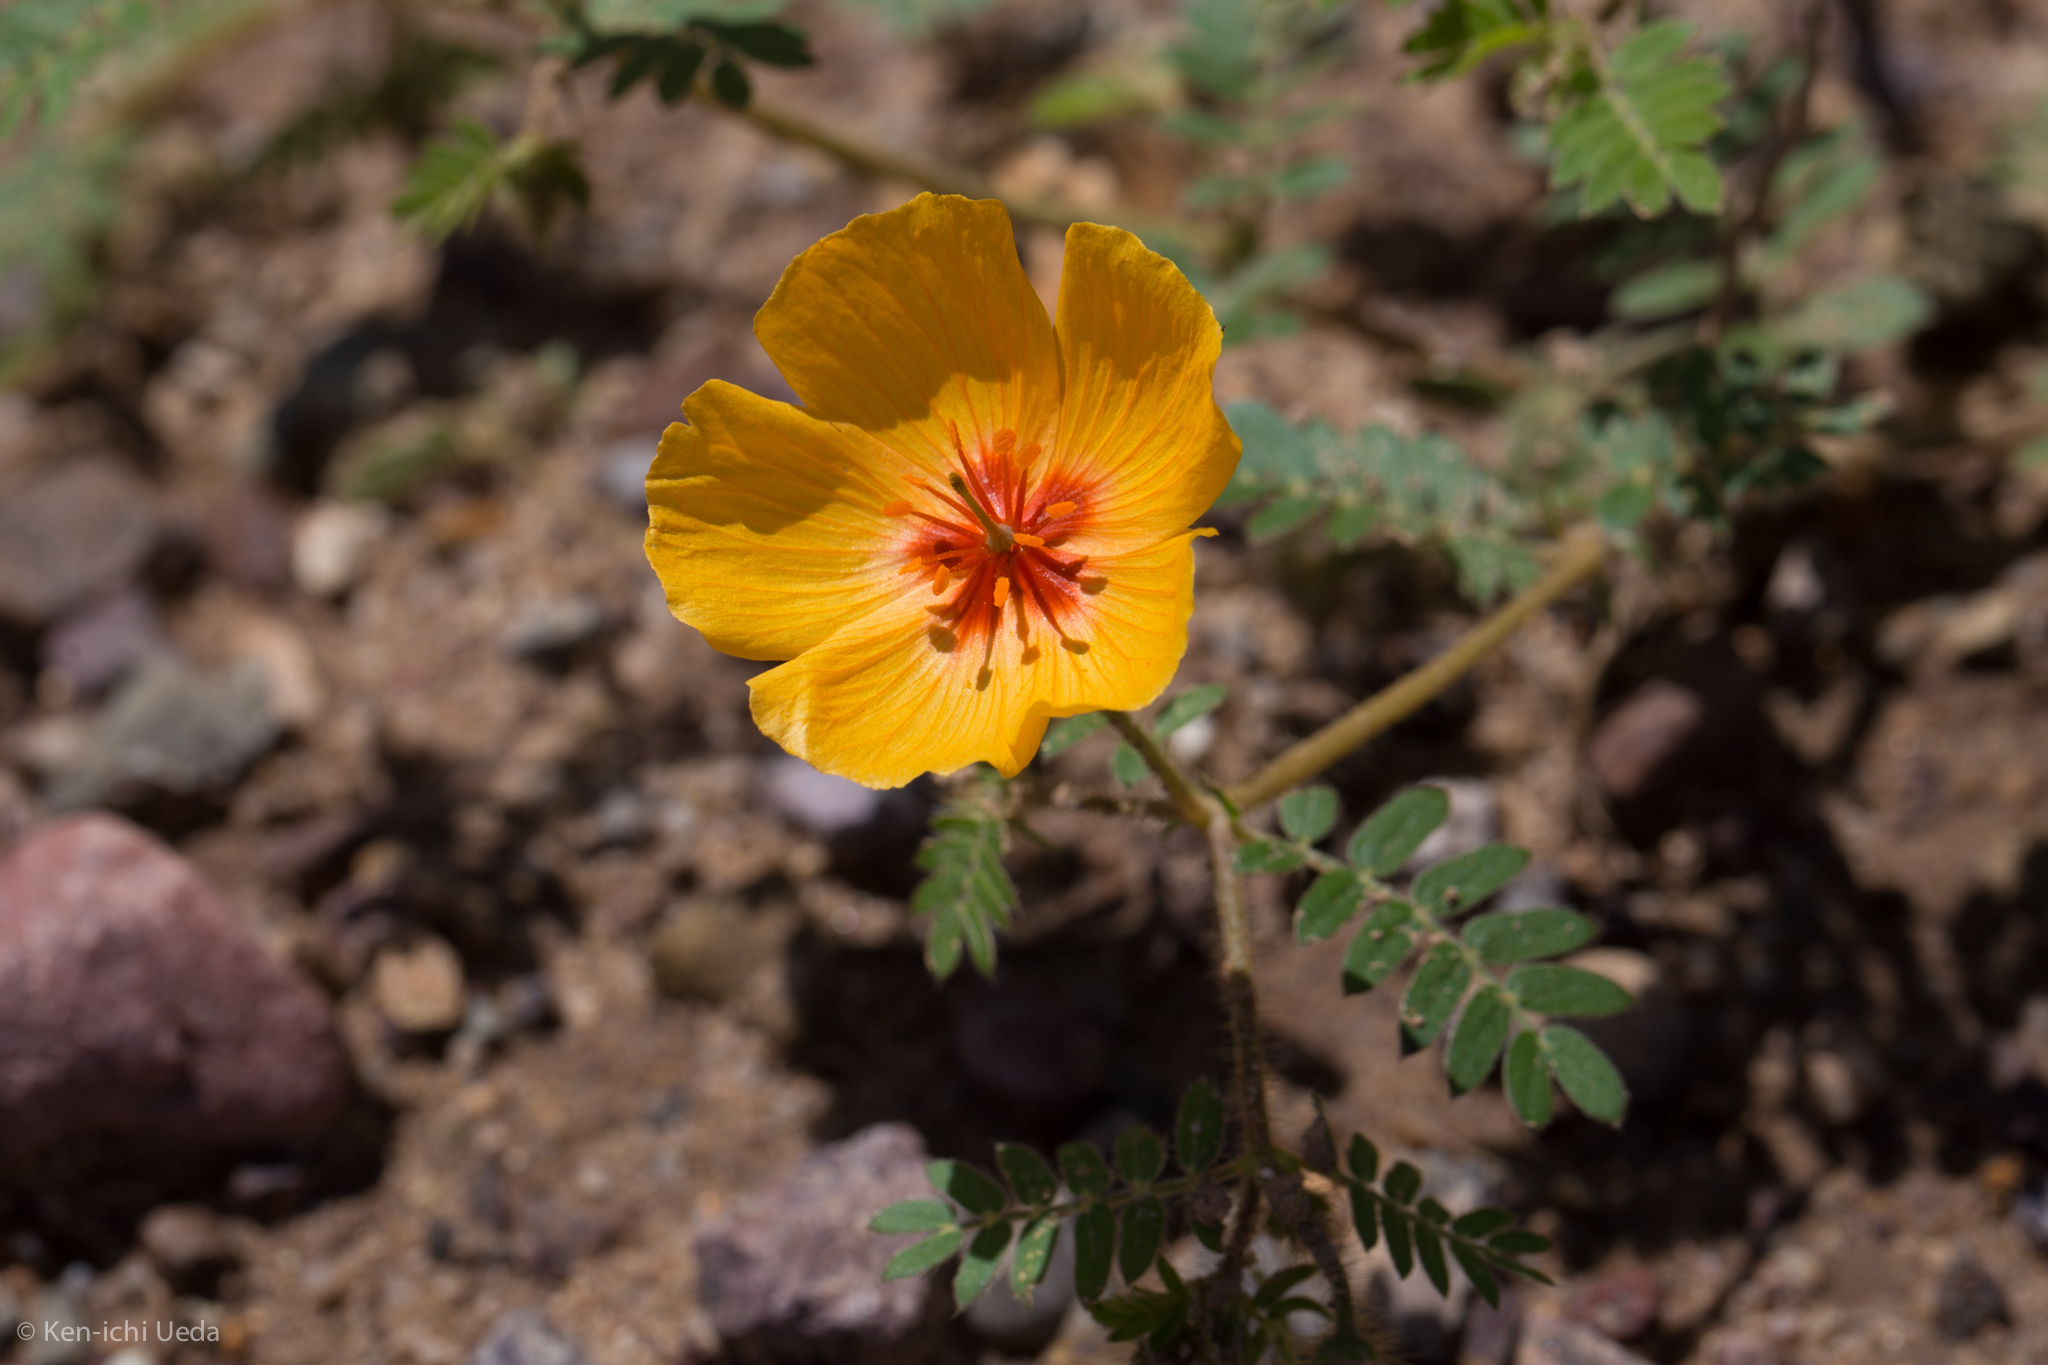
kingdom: Plantae
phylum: Tracheophyta
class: Magnoliopsida
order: Zygophyllales
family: Zygophyllaceae
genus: Kallstroemia
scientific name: Kallstroemia grandiflora
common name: Arizona-poppy
